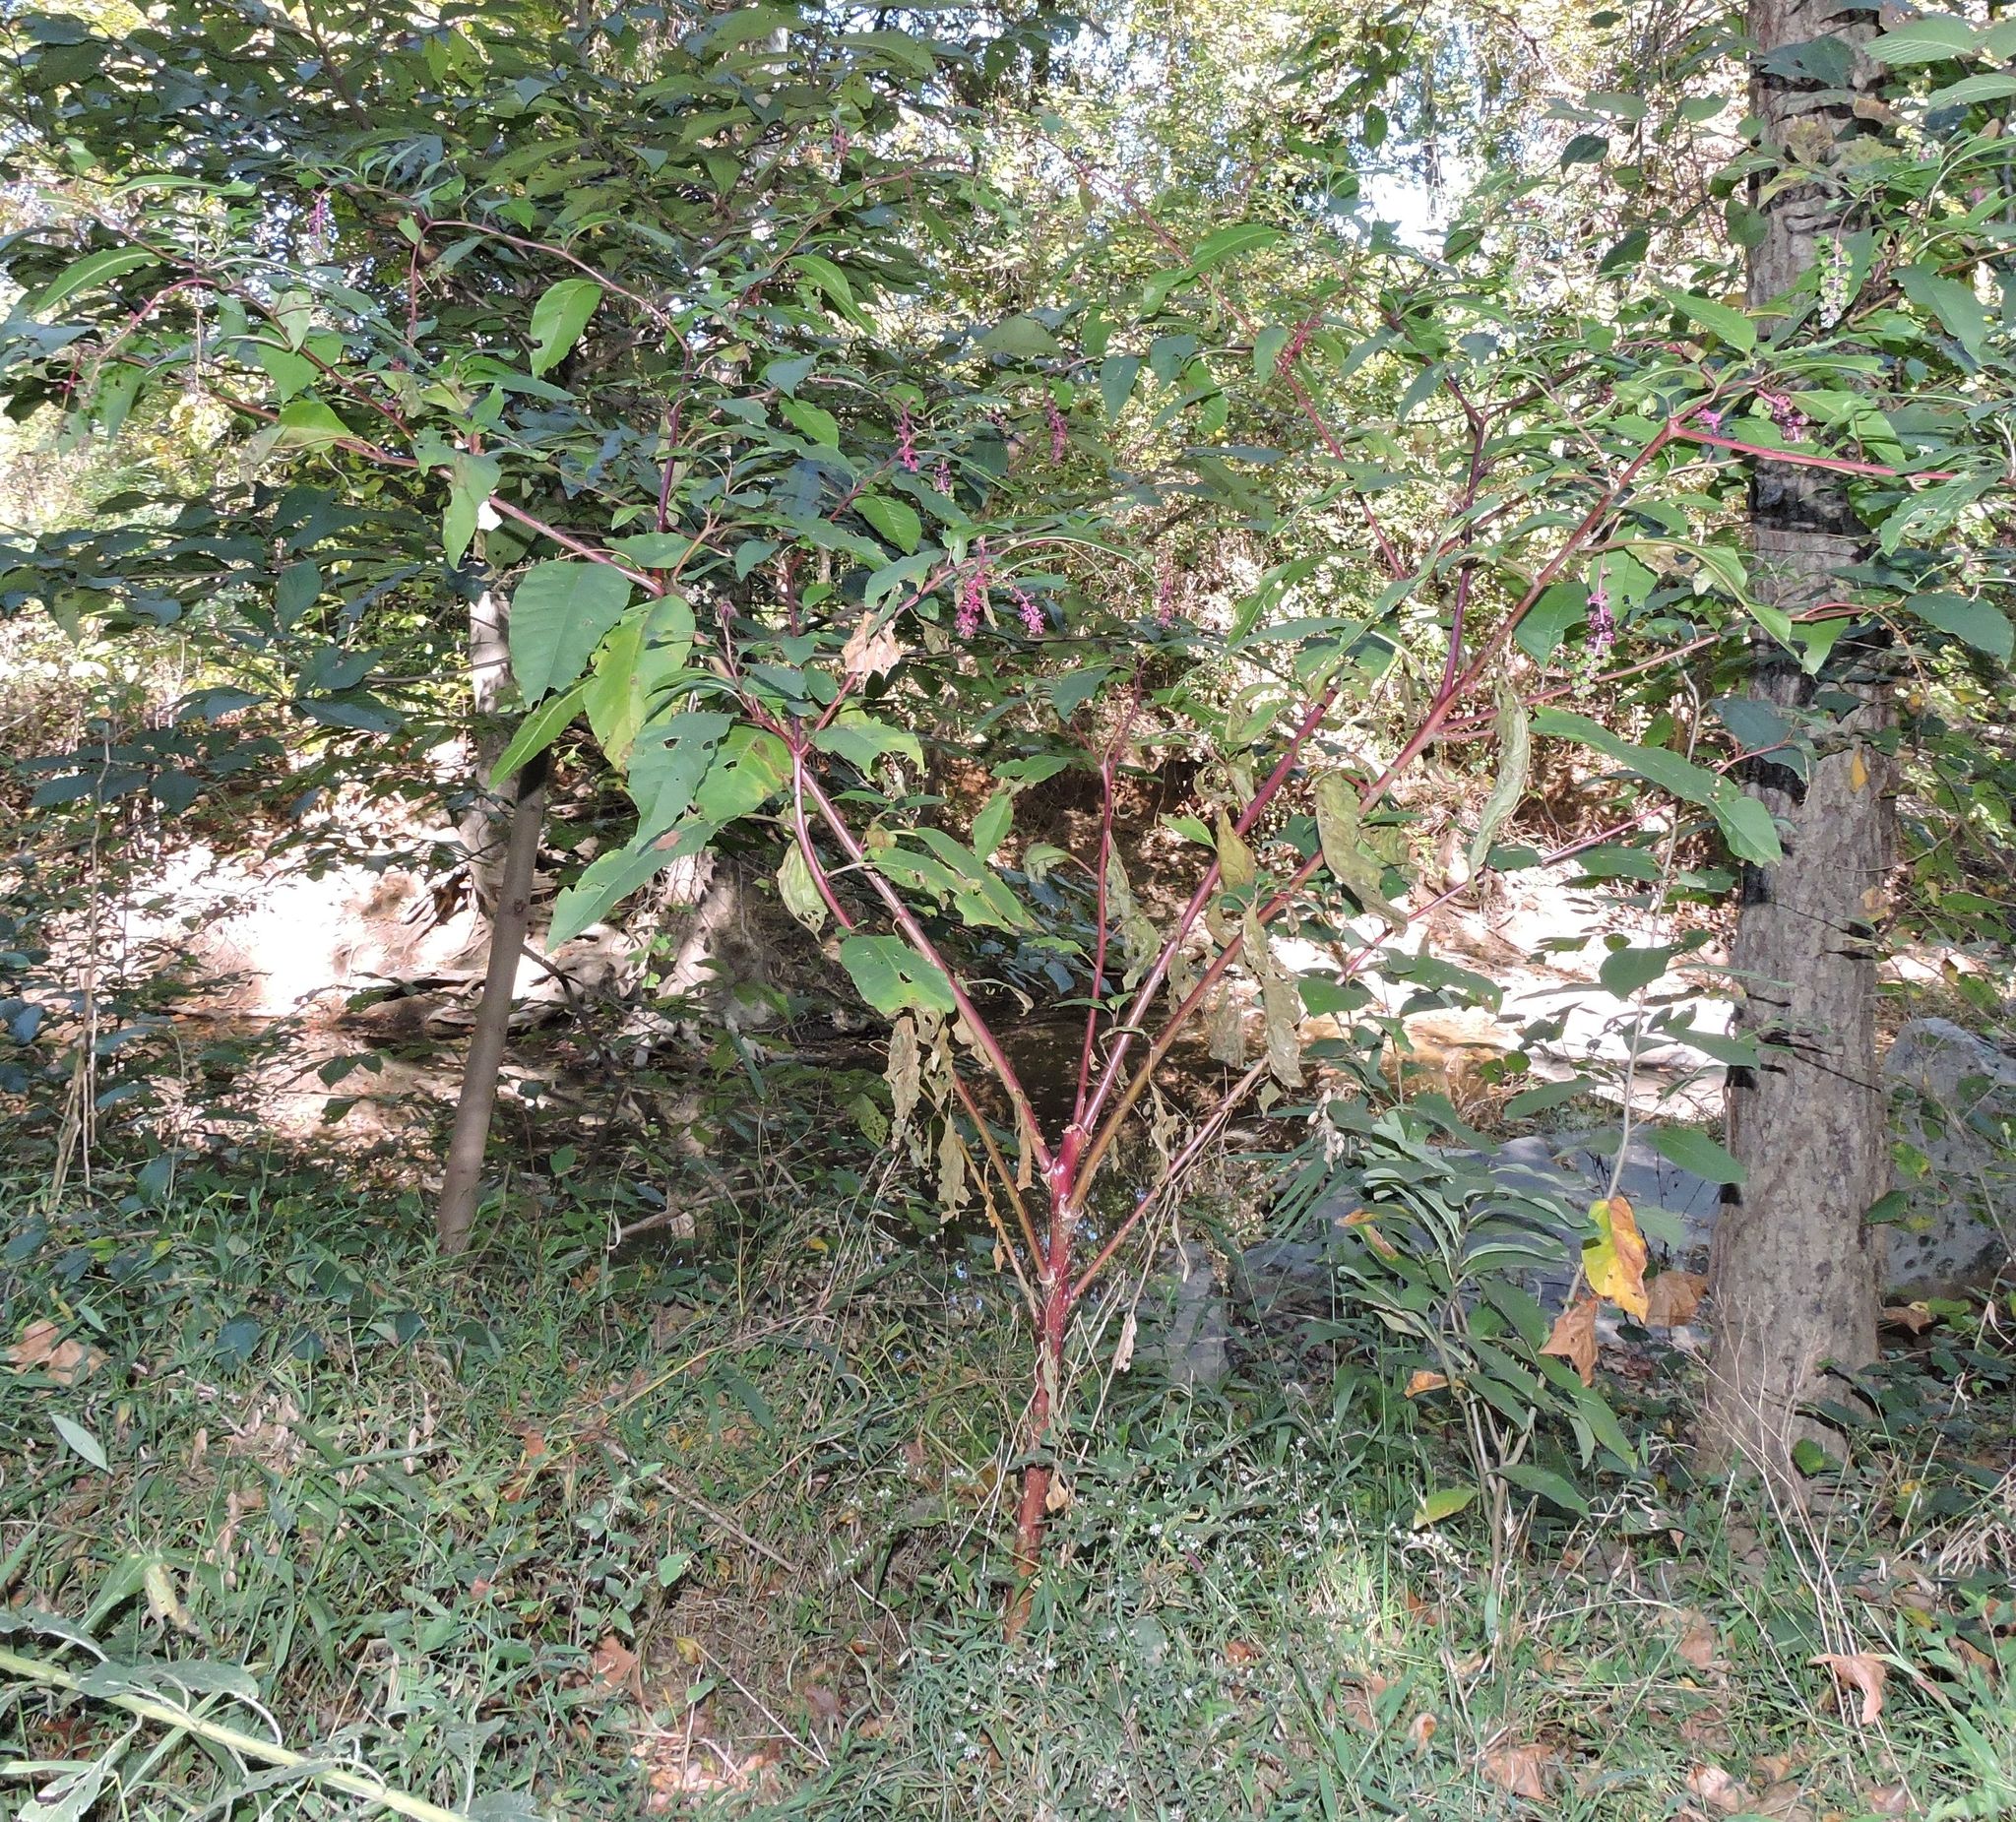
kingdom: Plantae
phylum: Tracheophyta
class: Magnoliopsida
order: Caryophyllales
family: Phytolaccaceae
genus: Phytolacca
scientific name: Phytolacca americana
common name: American pokeweed
